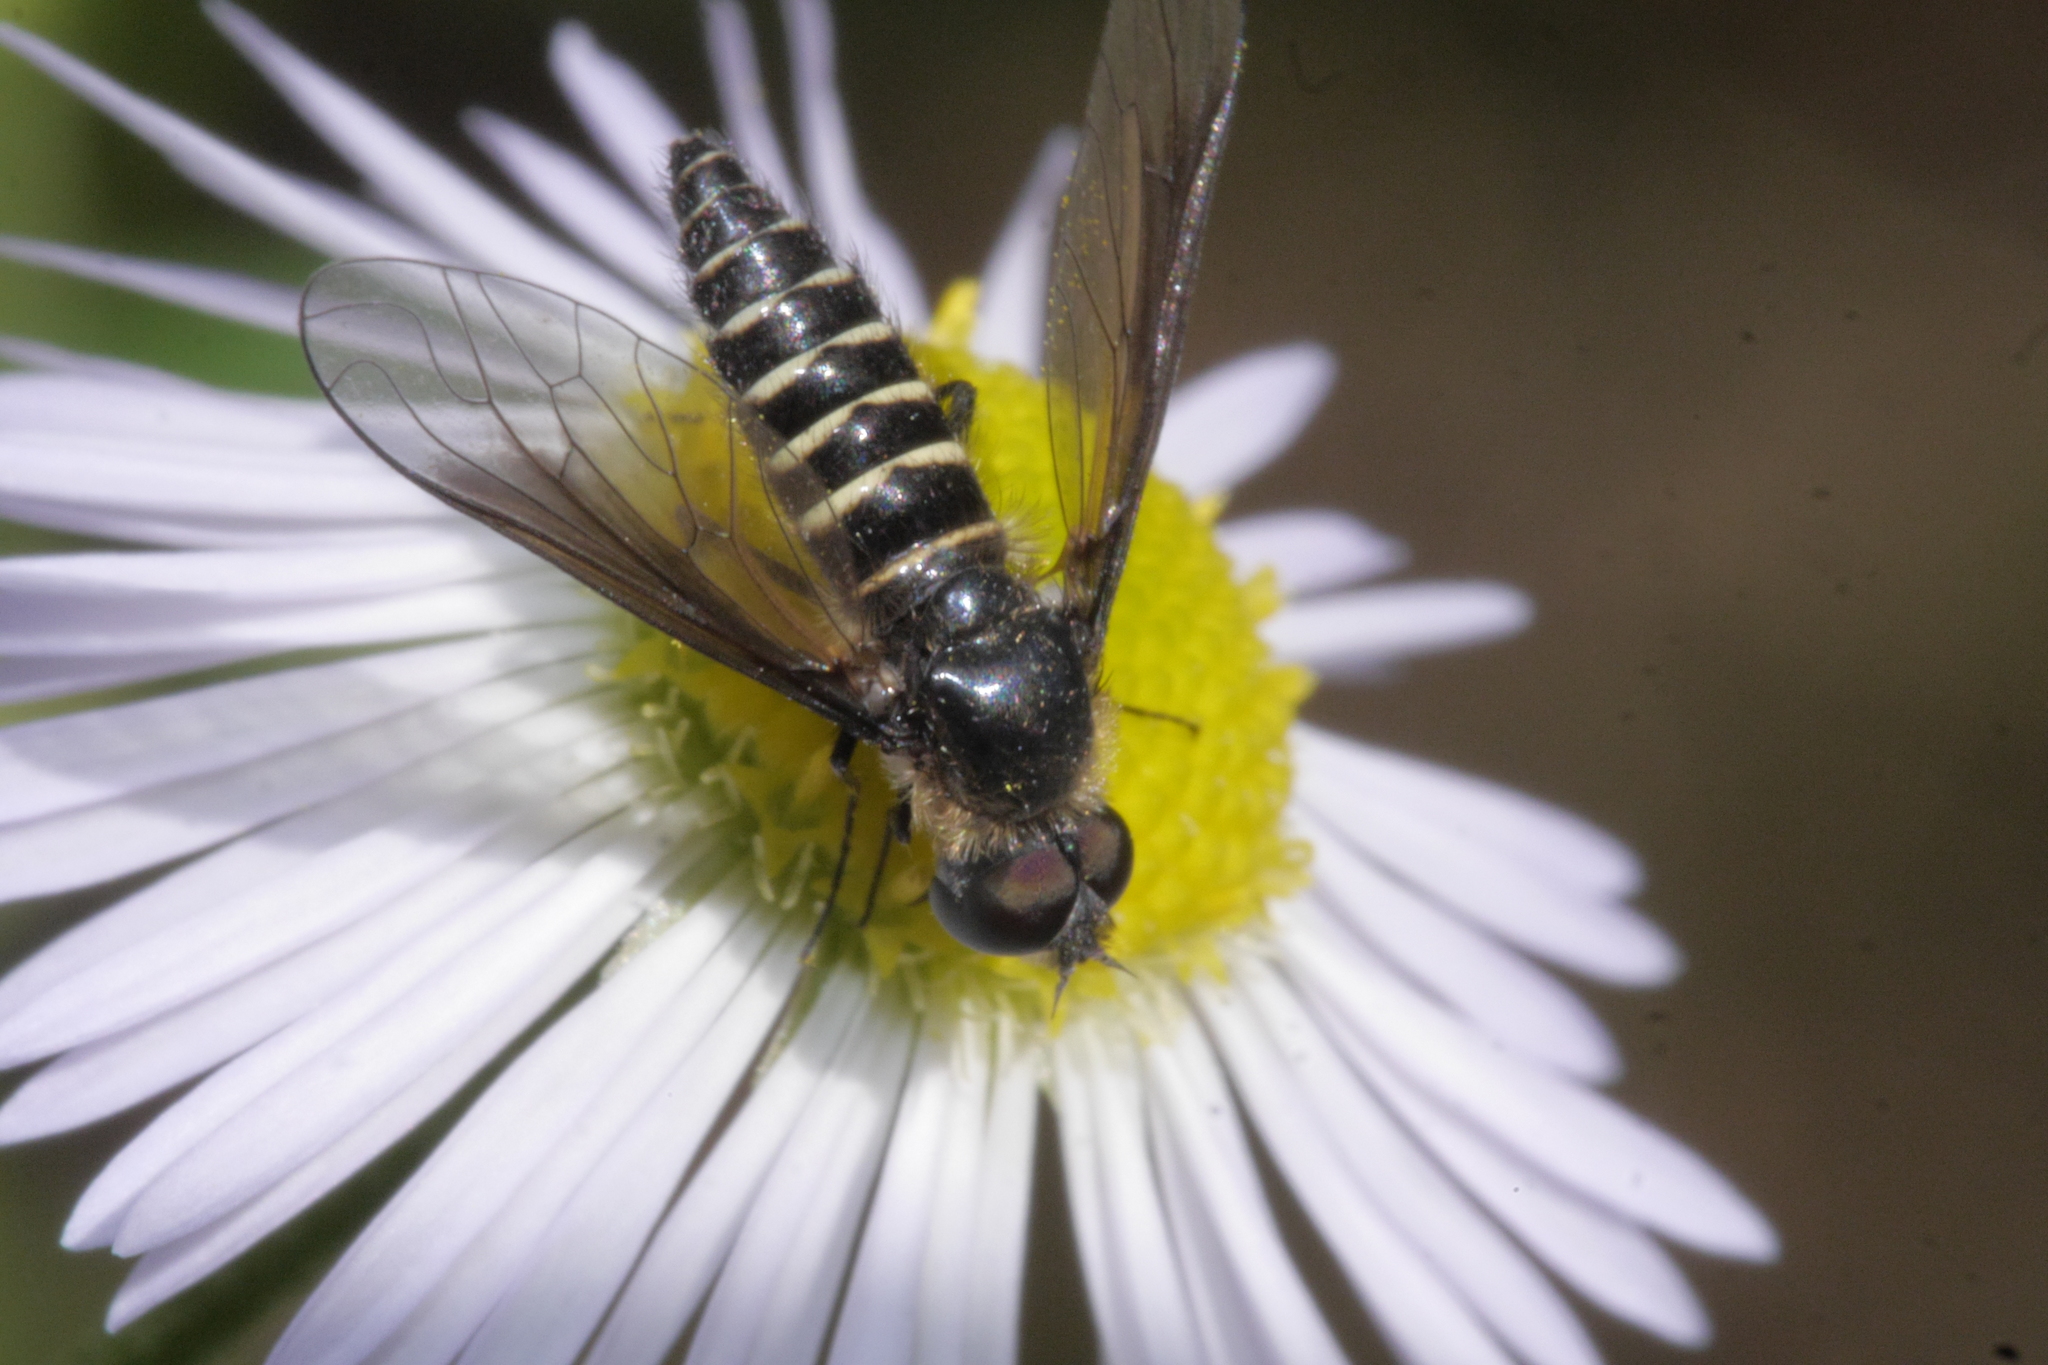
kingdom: Animalia
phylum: Arthropoda
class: Insecta
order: Diptera
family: Bombyliidae
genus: Lomatia
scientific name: Lomatia lateralis
